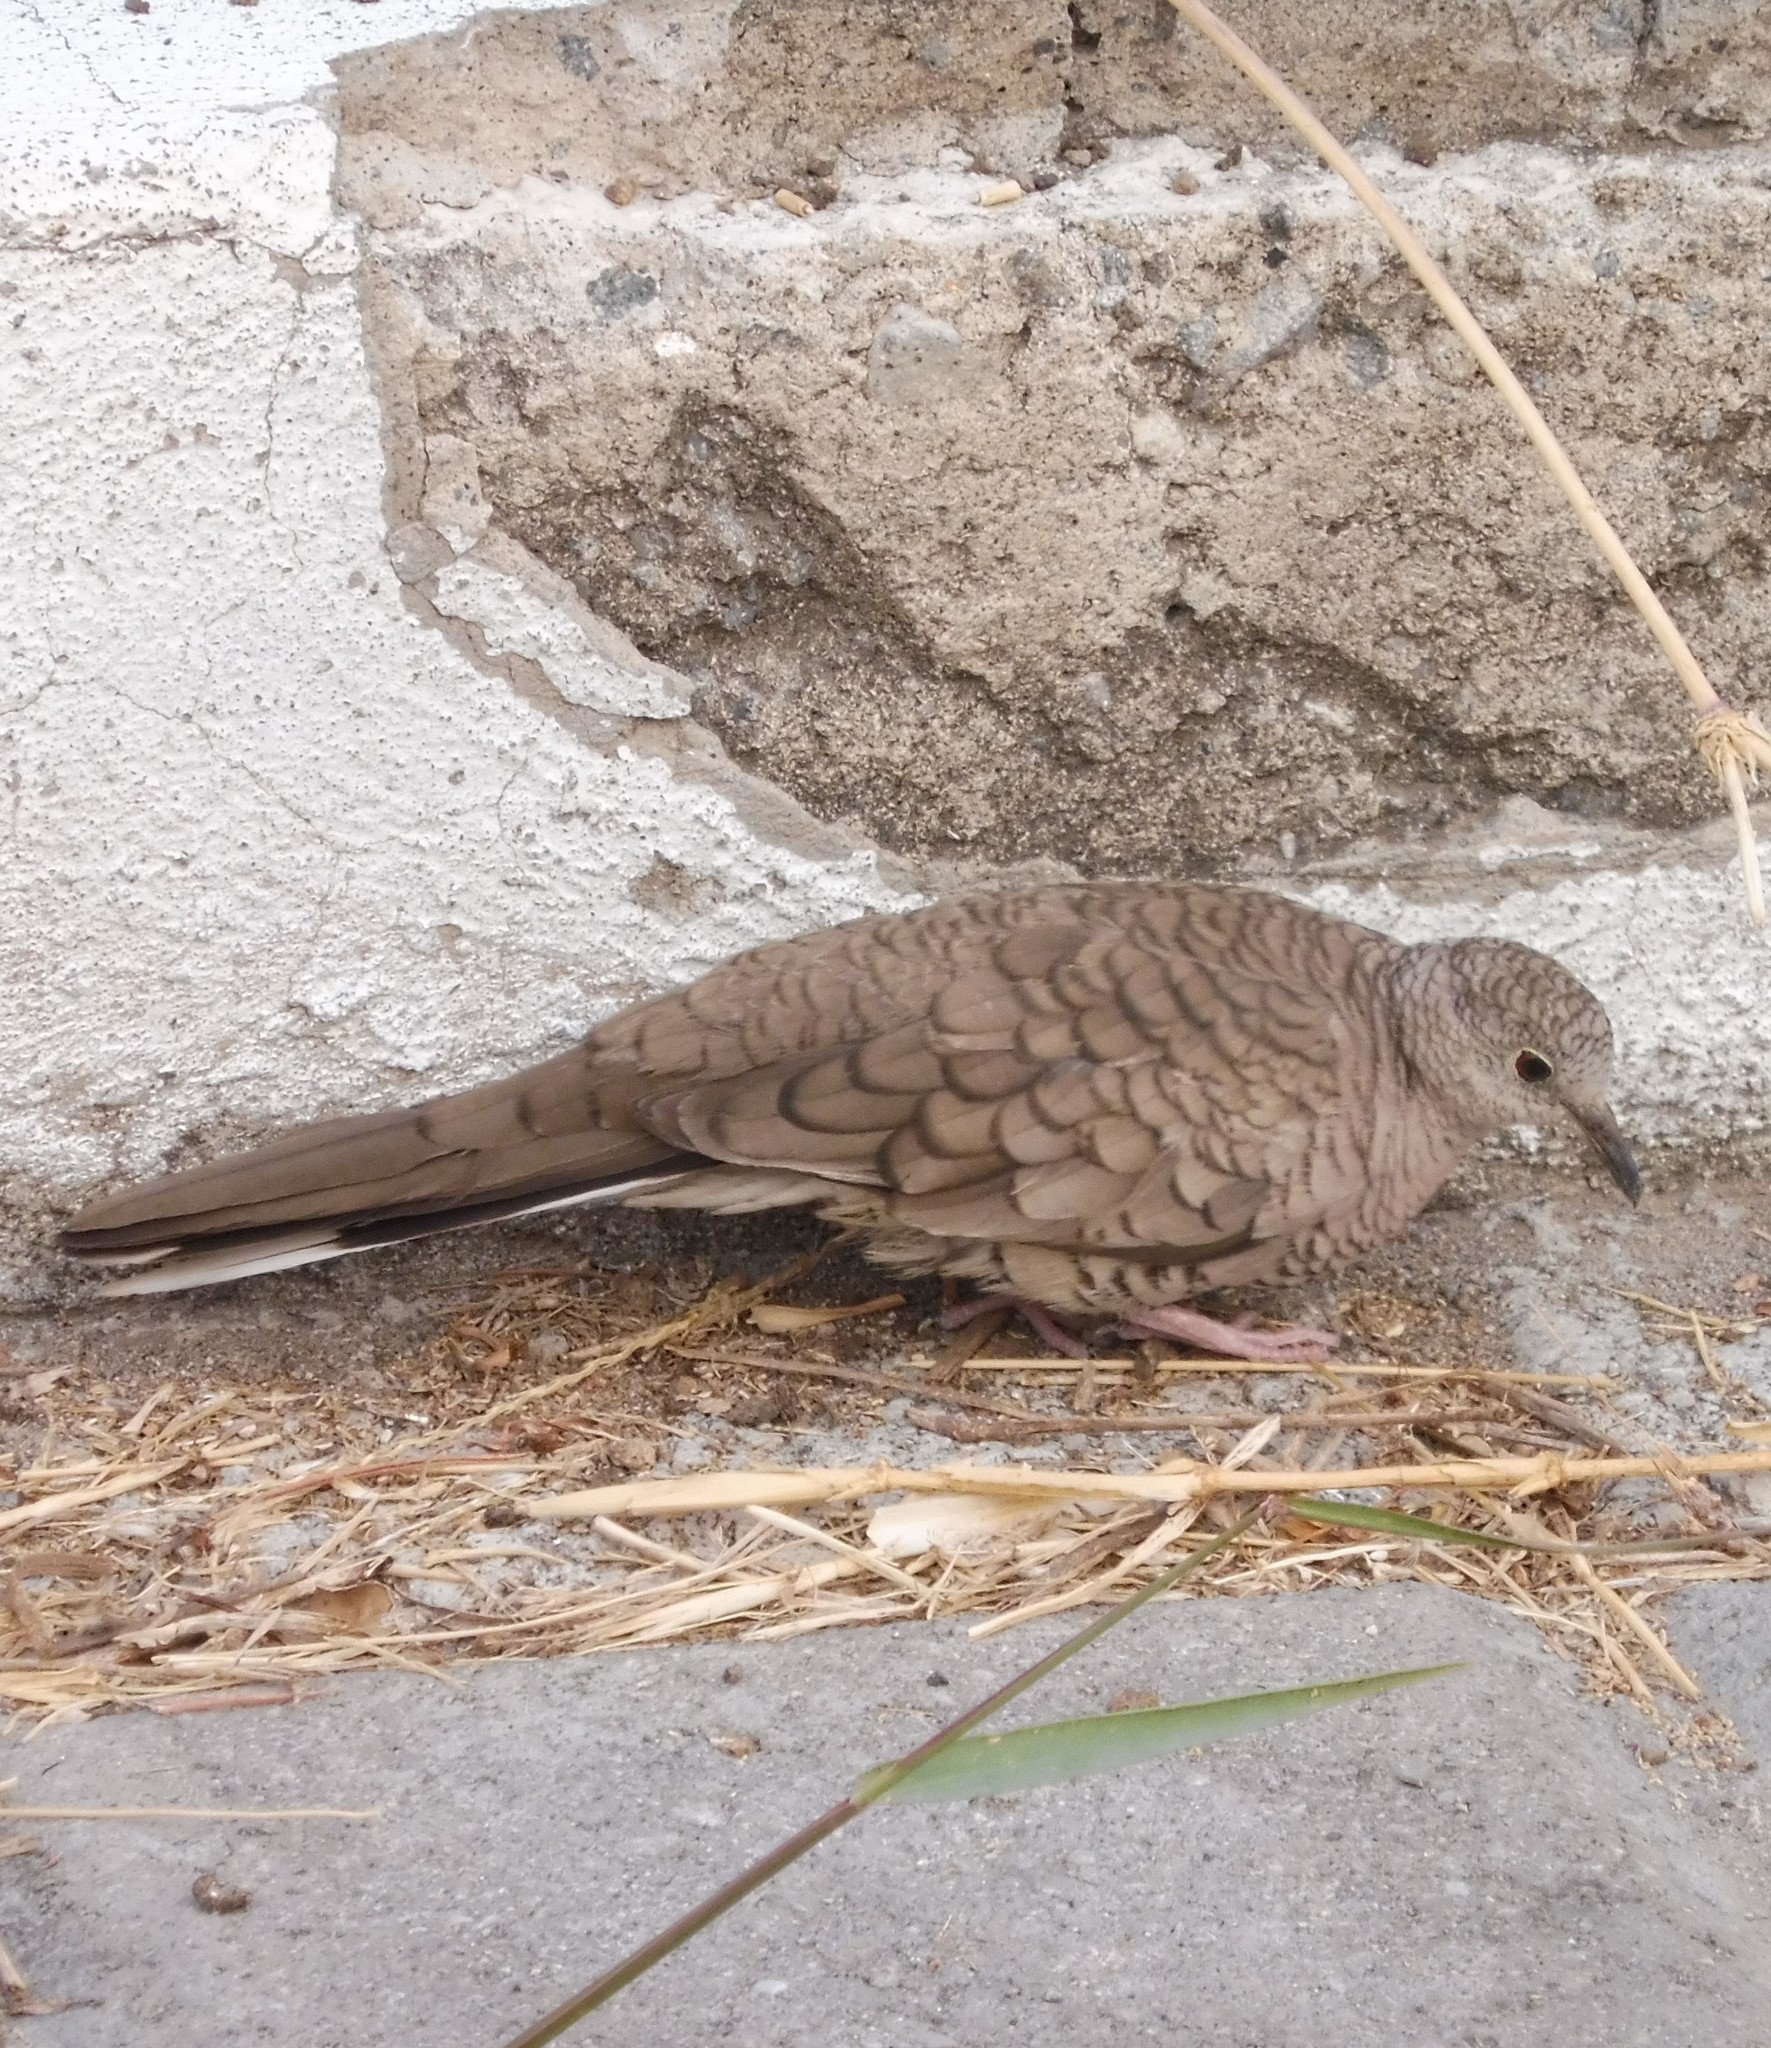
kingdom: Animalia
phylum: Chordata
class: Aves
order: Columbiformes
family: Columbidae
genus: Columbina
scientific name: Columbina inca
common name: Inca dove
